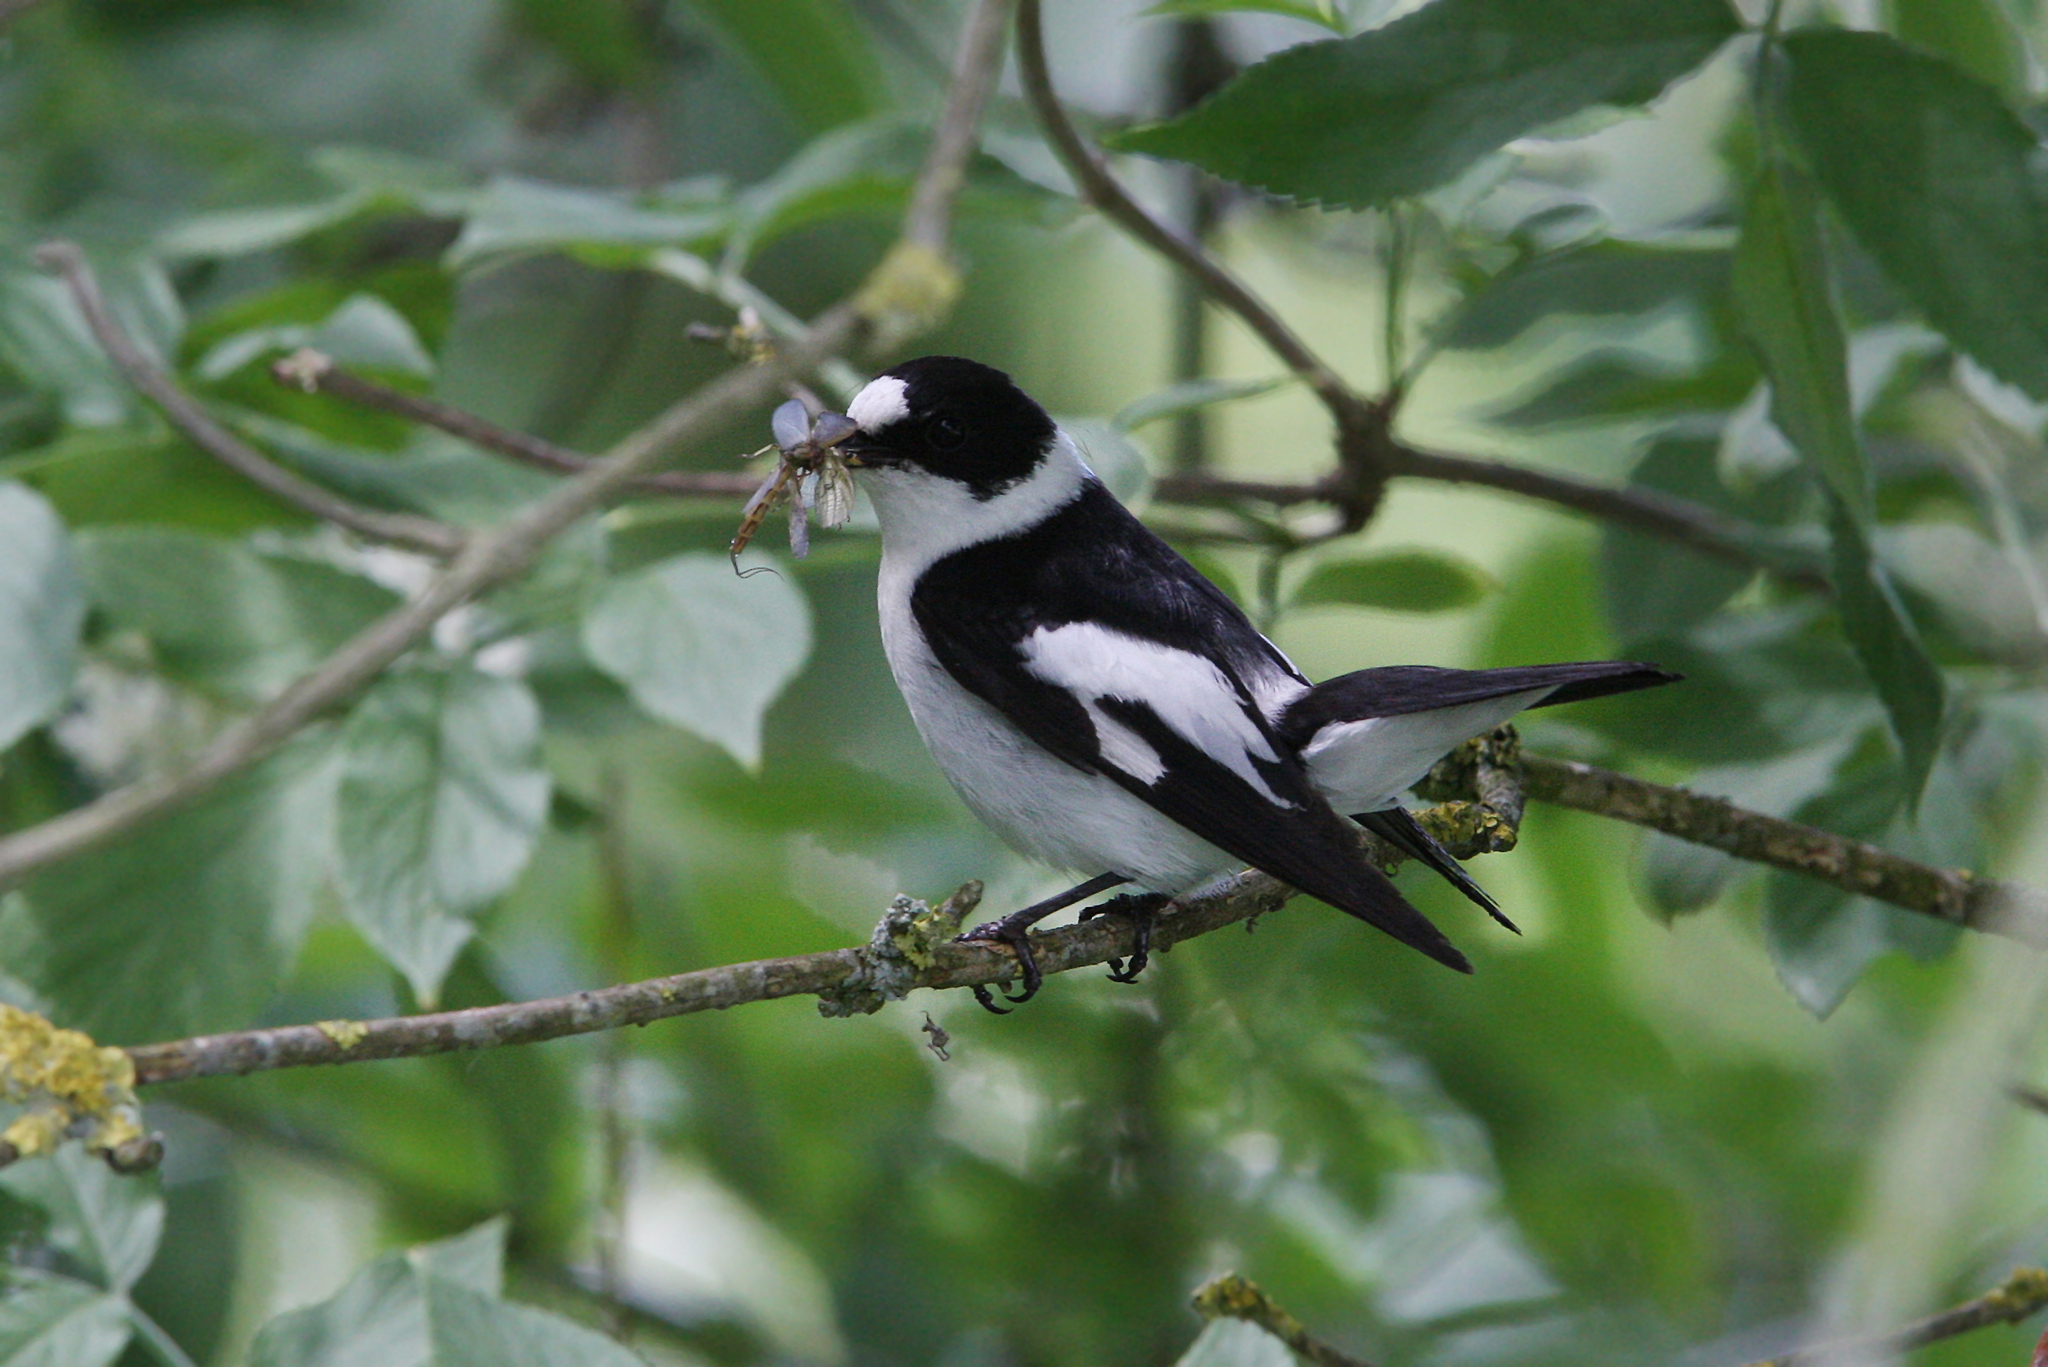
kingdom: Animalia
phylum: Chordata
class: Aves
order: Passeriformes
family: Muscicapidae
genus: Ficedula
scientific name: Ficedula albicollis
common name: Collared flycatcher
